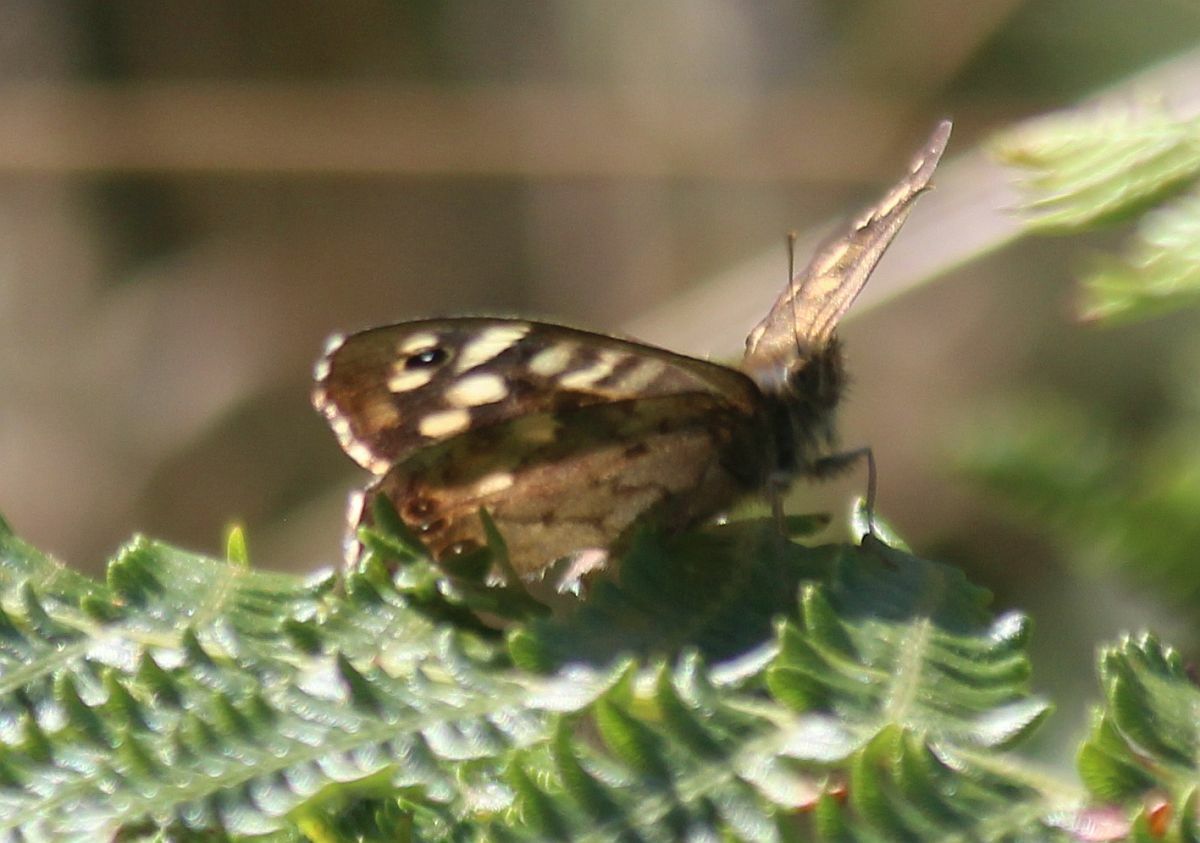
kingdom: Animalia
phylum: Arthropoda
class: Insecta
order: Lepidoptera
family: Nymphalidae
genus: Pararge
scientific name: Pararge aegeria
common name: Speckled wood
